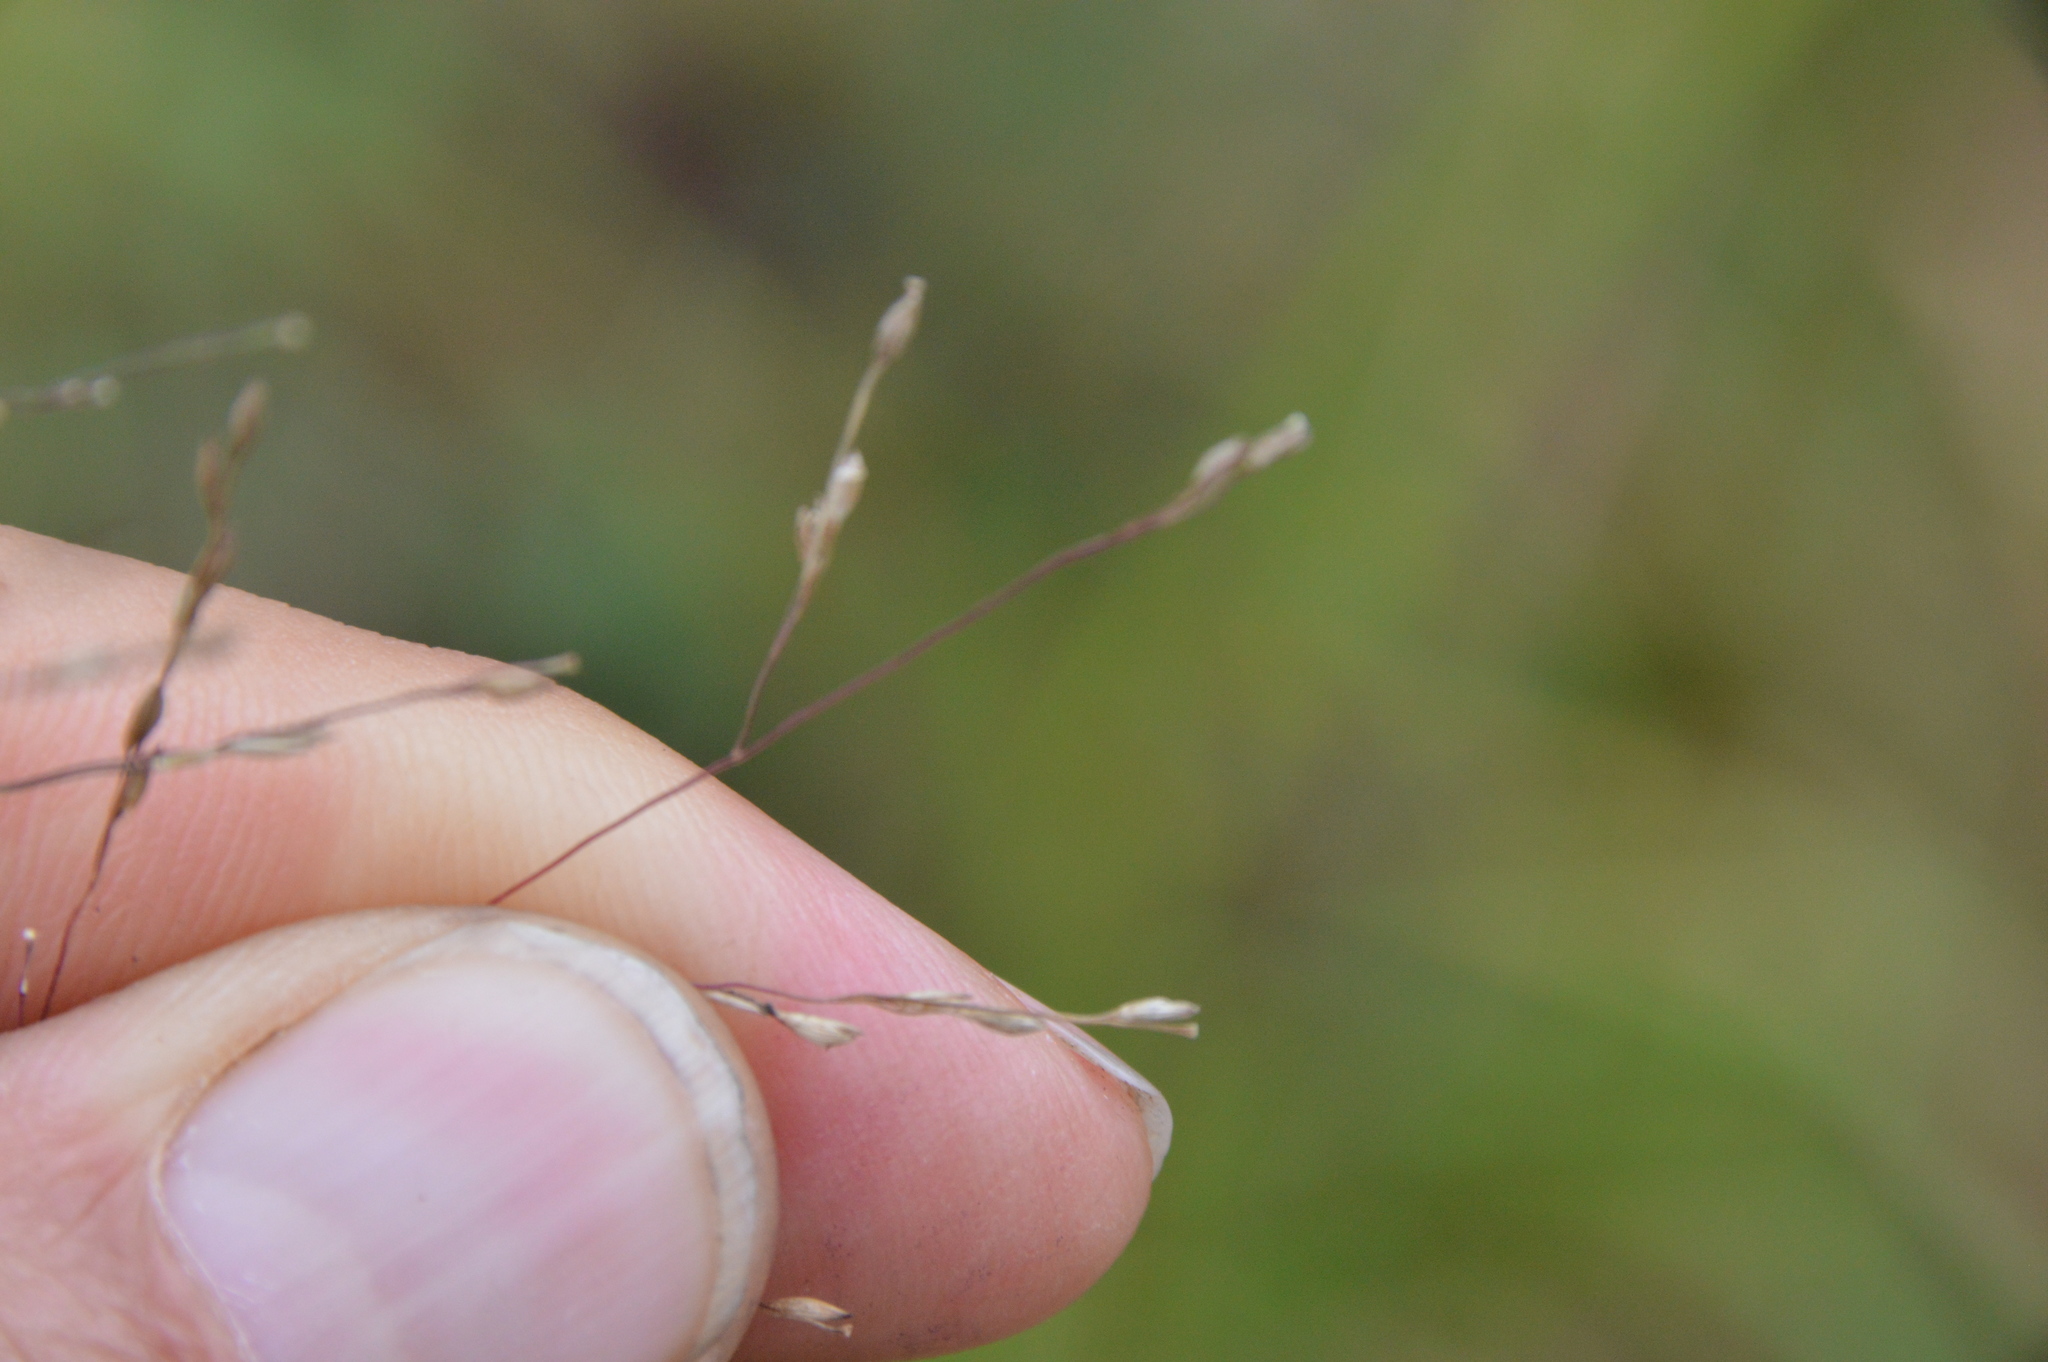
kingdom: Plantae
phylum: Tracheophyta
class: Liliopsida
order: Poales
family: Poaceae
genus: Panicum
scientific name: Panicum dichotomiflorum
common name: Autumn millet
